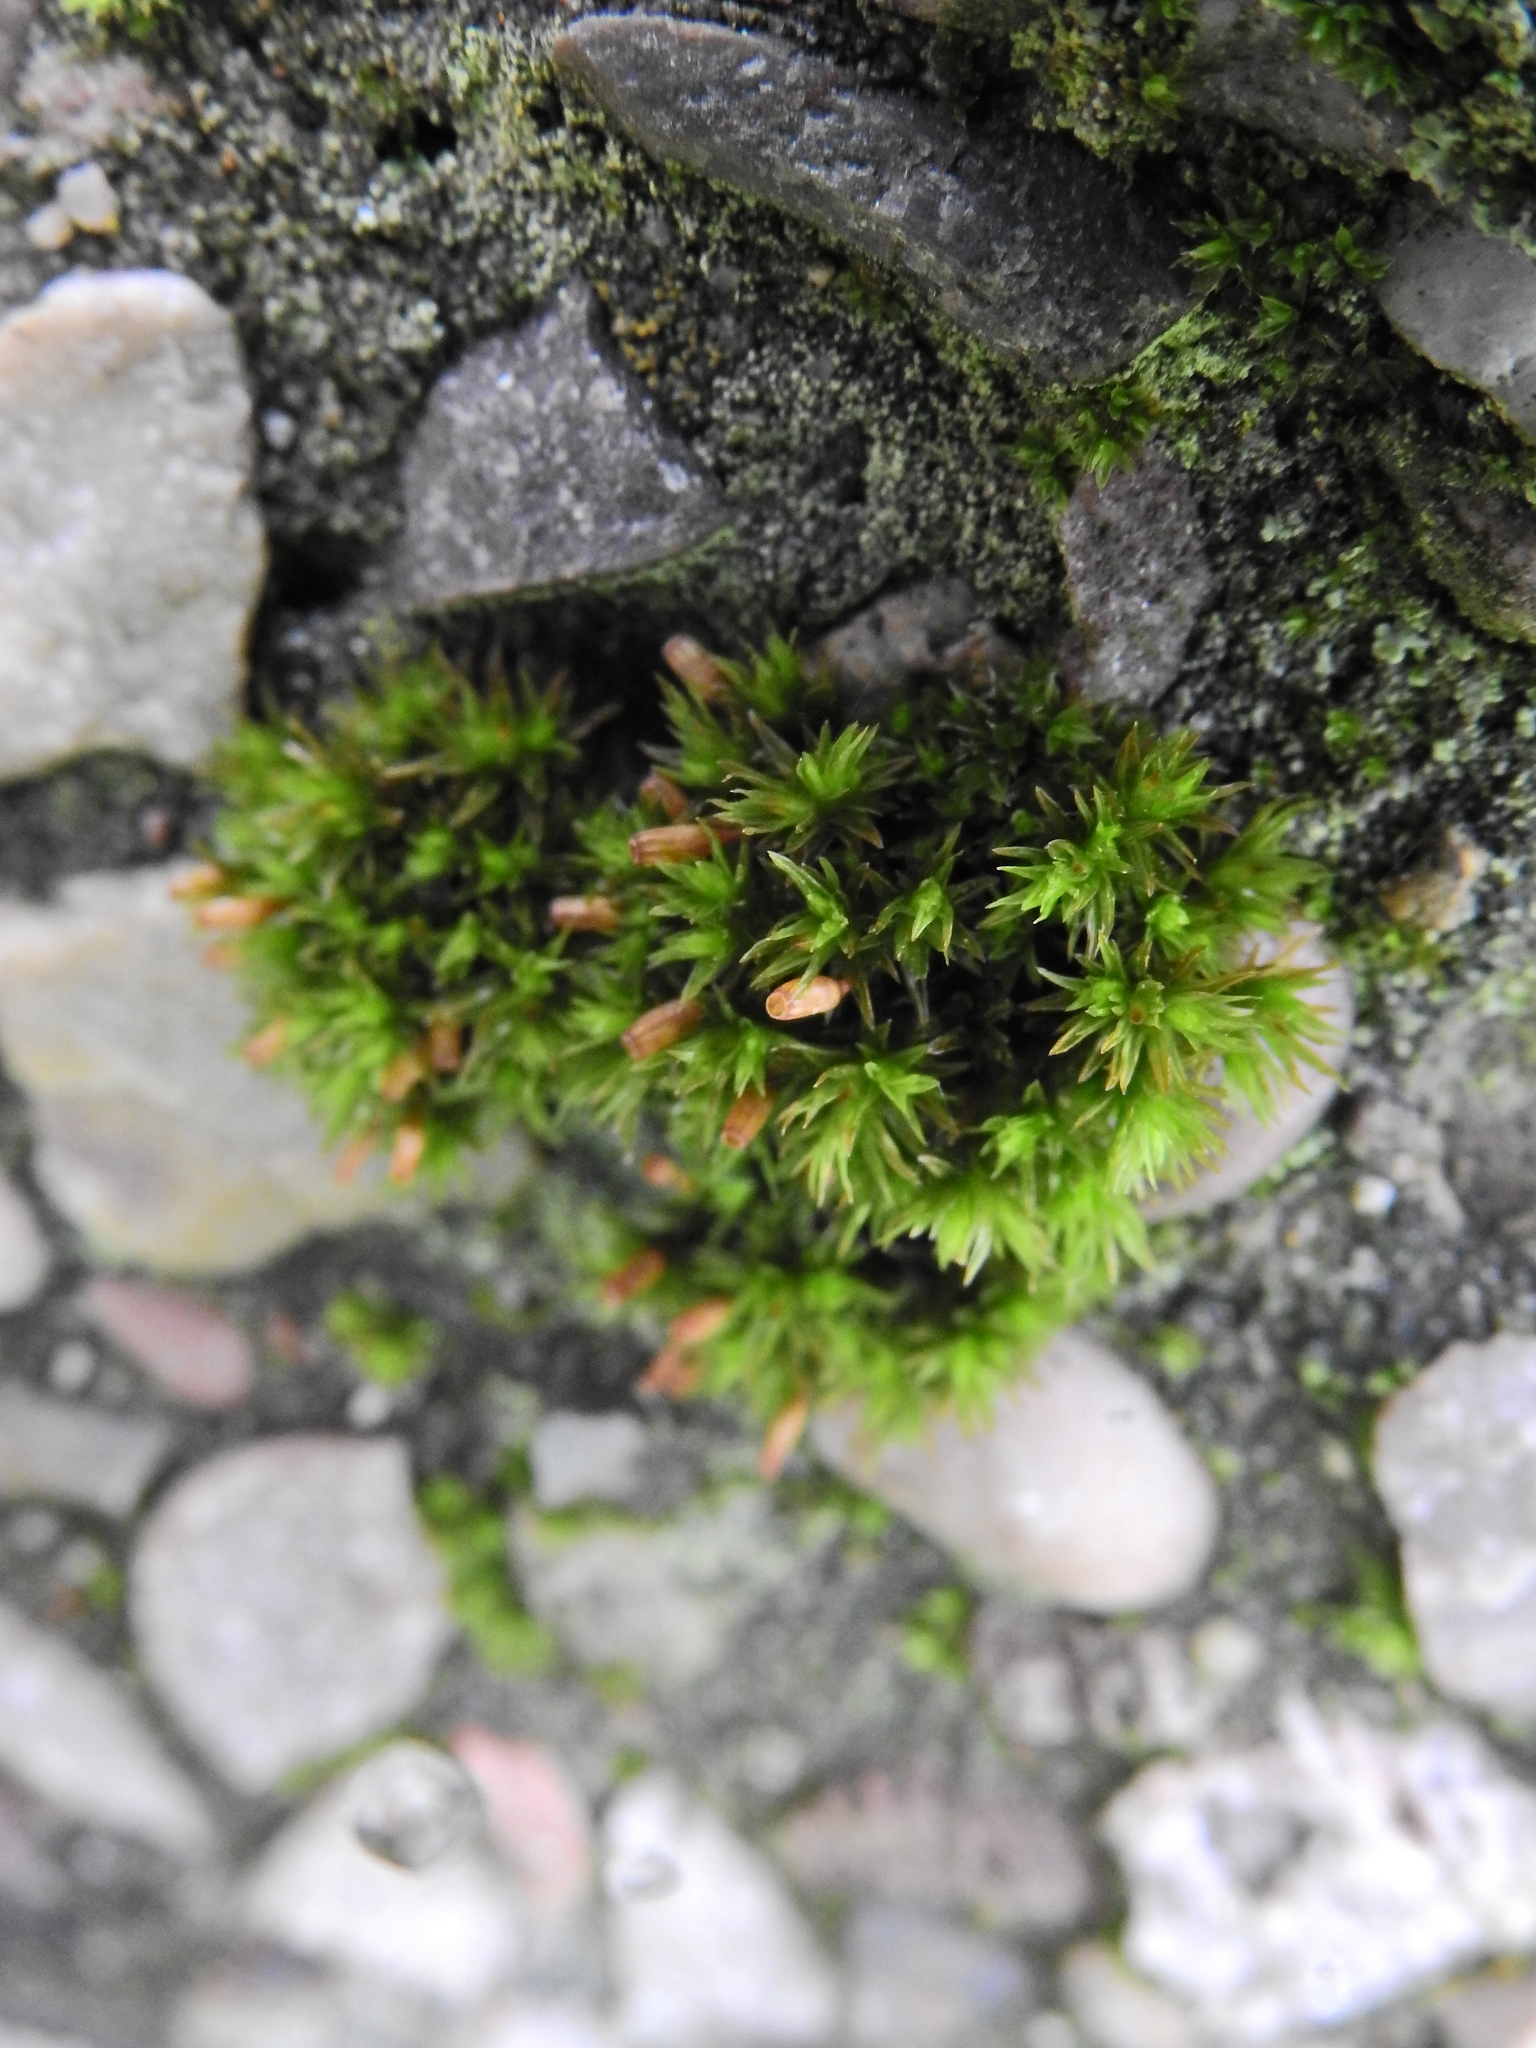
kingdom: Plantae
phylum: Bryophyta
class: Bryopsida
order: Orthotrichales
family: Orthotrichaceae
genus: Orthotrichum
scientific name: Orthotrichum anomalum
